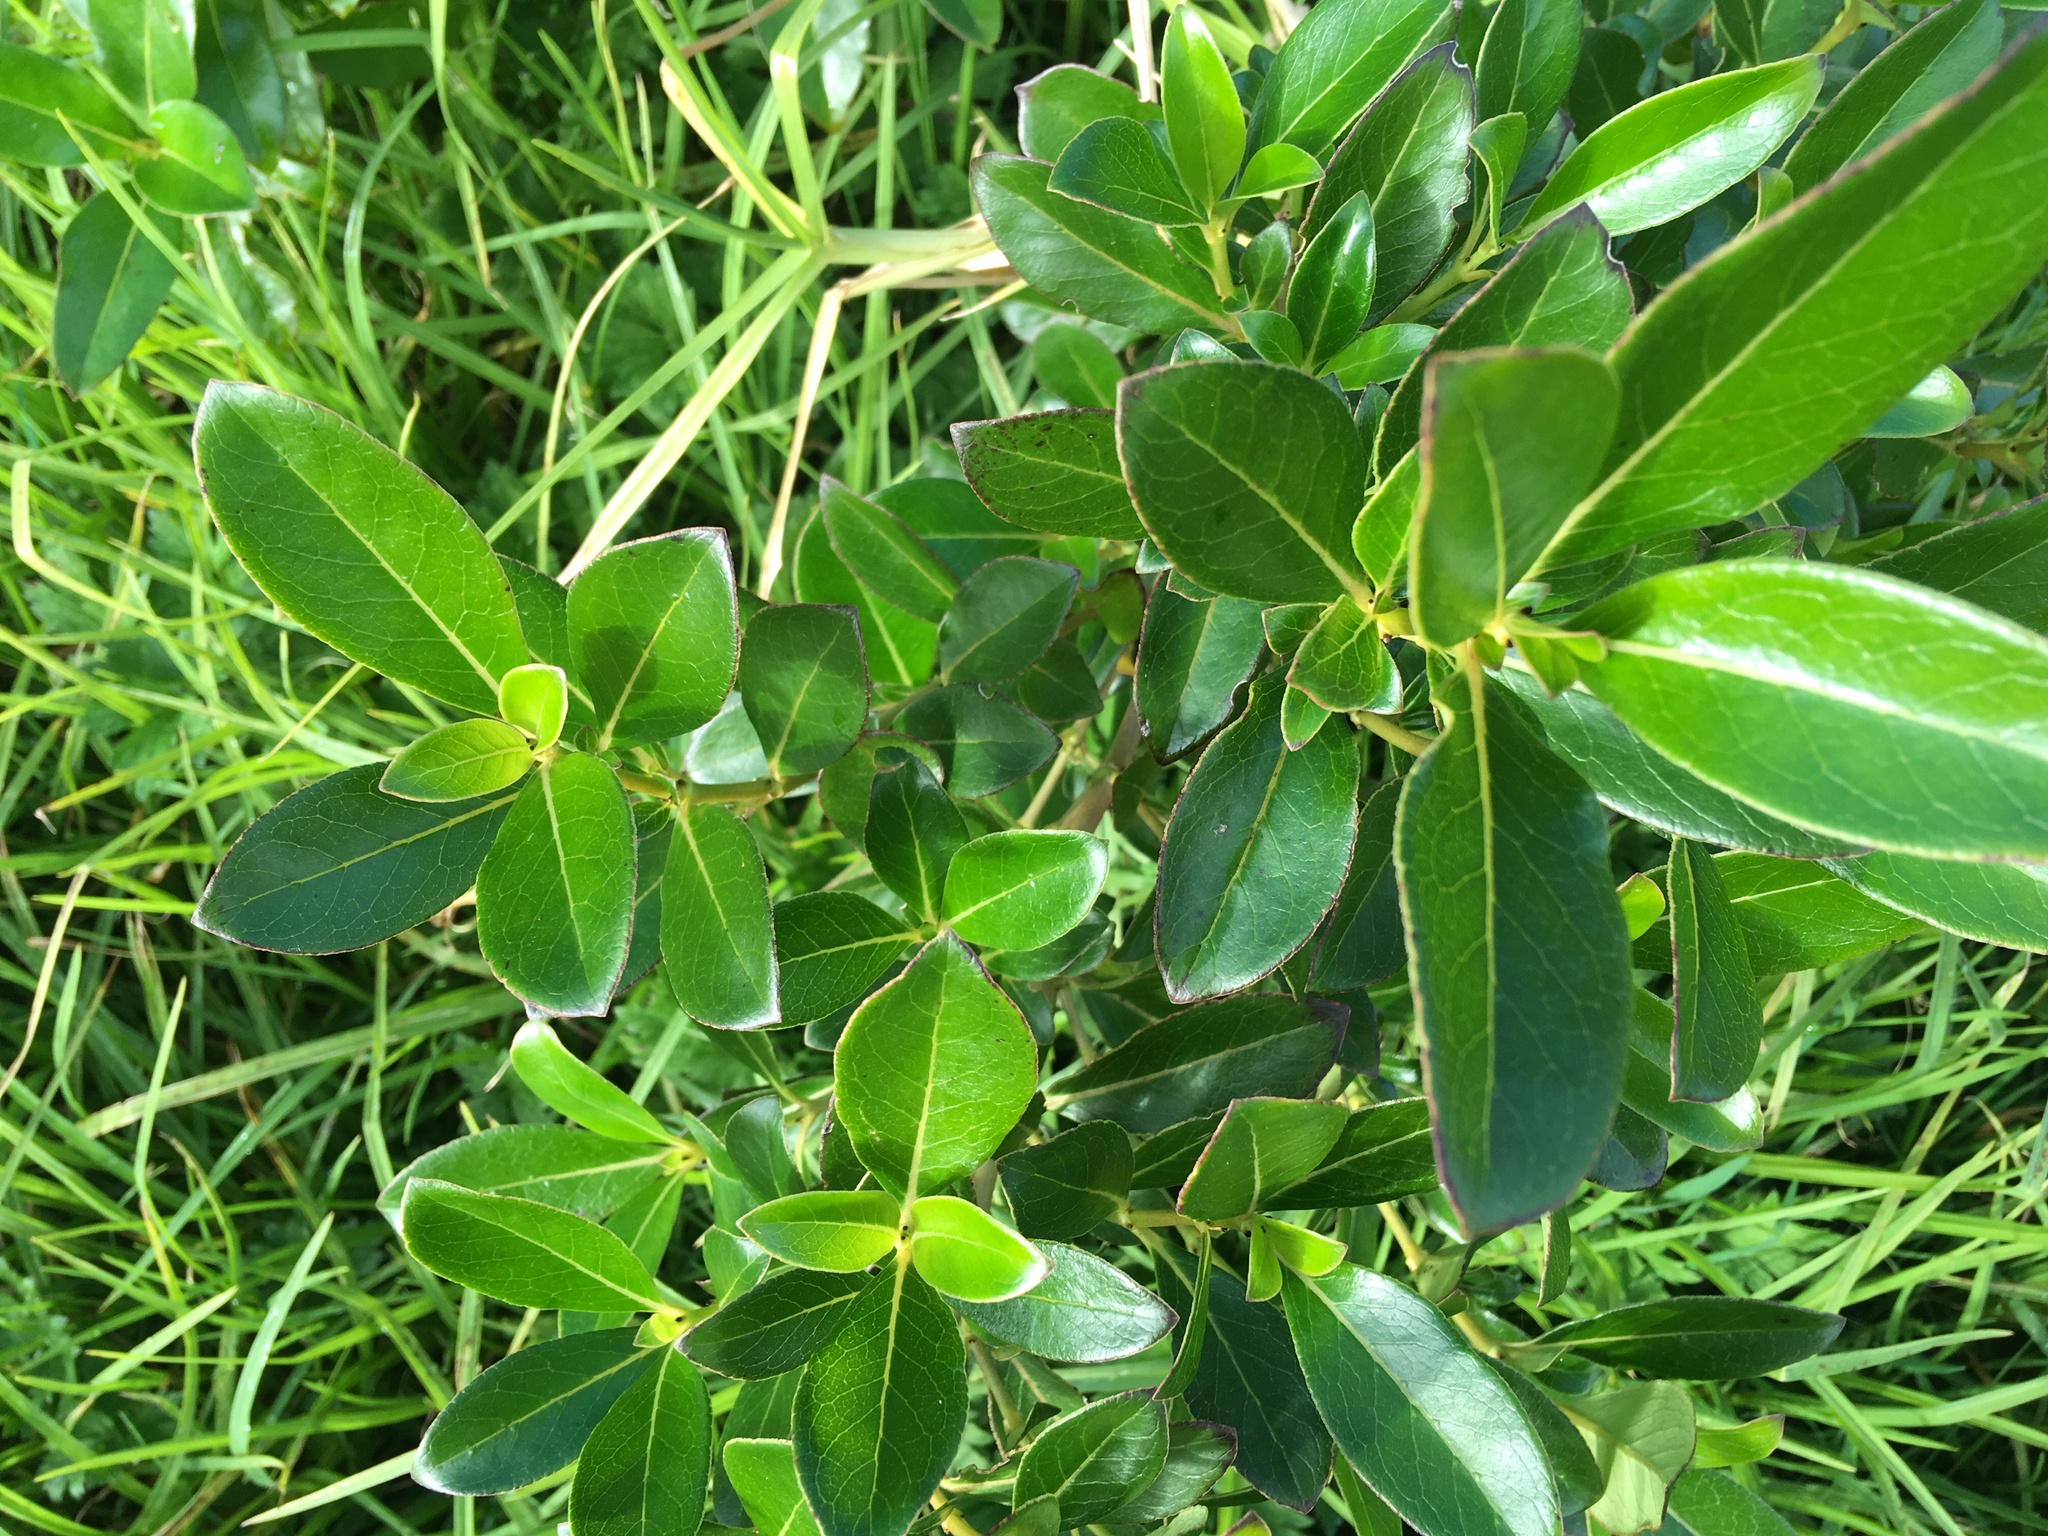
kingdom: Plantae
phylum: Tracheophyta
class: Magnoliopsida
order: Gentianales
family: Rubiaceae
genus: Coprosma
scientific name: Coprosma robusta
